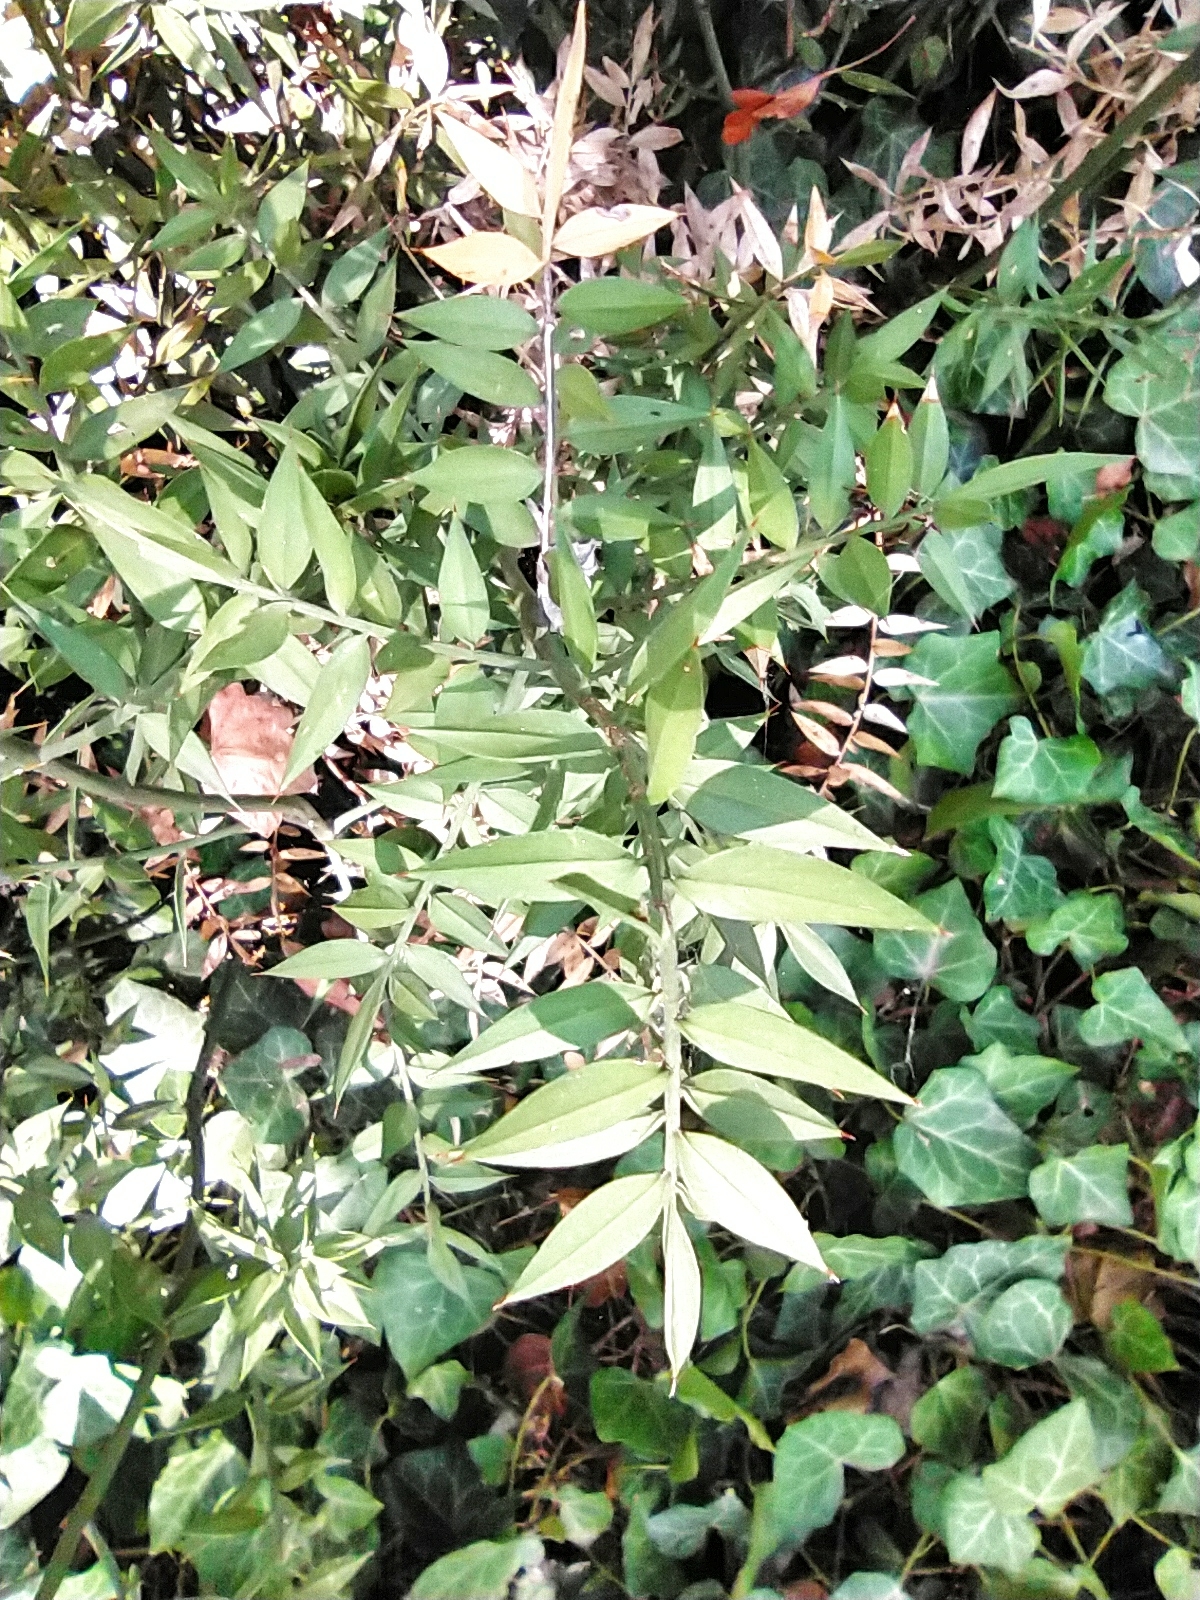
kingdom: Plantae
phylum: Tracheophyta
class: Liliopsida
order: Asparagales
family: Asparagaceae
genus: Ruscus
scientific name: Ruscus aculeatus
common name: Butcher's-broom
